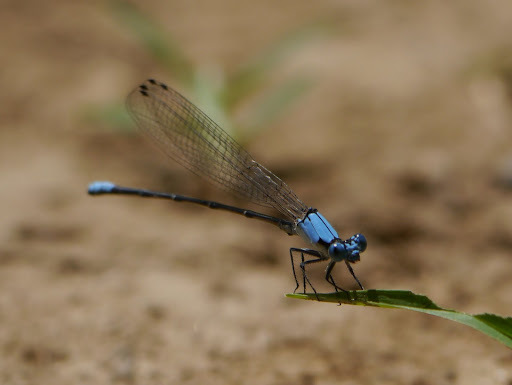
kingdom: Animalia
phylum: Arthropoda
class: Insecta
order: Odonata
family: Coenagrionidae
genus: Argia
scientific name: Argia apicalis
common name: Blue-fronted dancer
